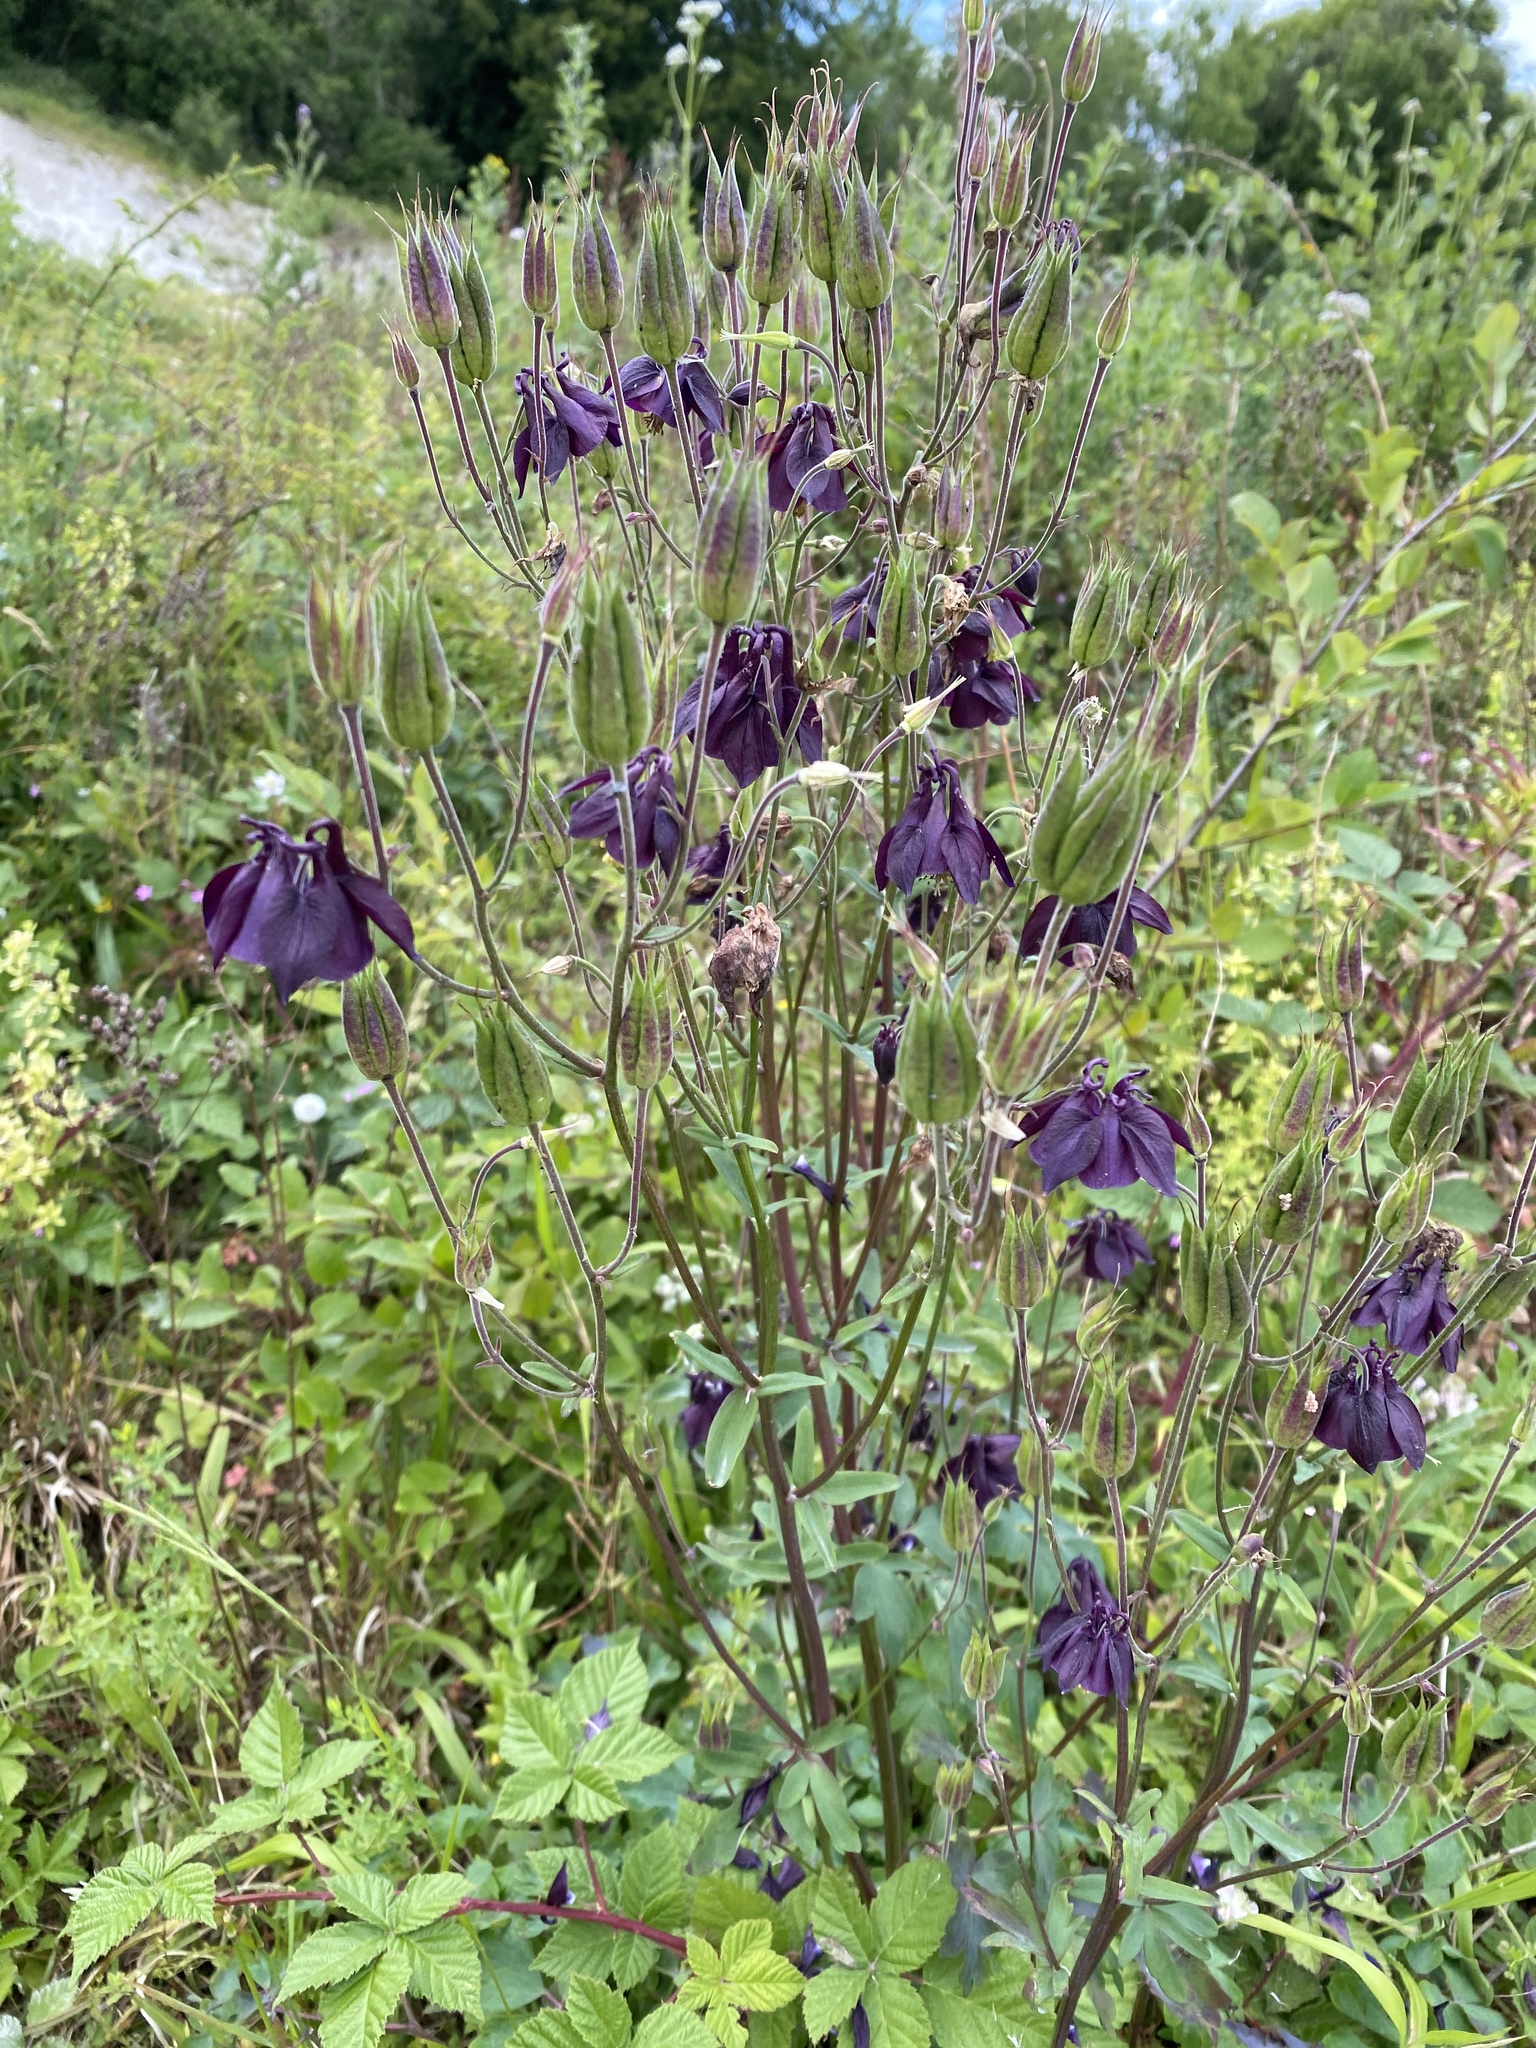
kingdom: Plantae
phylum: Tracheophyta
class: Magnoliopsida
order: Ranunculales
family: Ranunculaceae
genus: Aquilegia
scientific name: Aquilegia vulgaris
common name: Columbine
